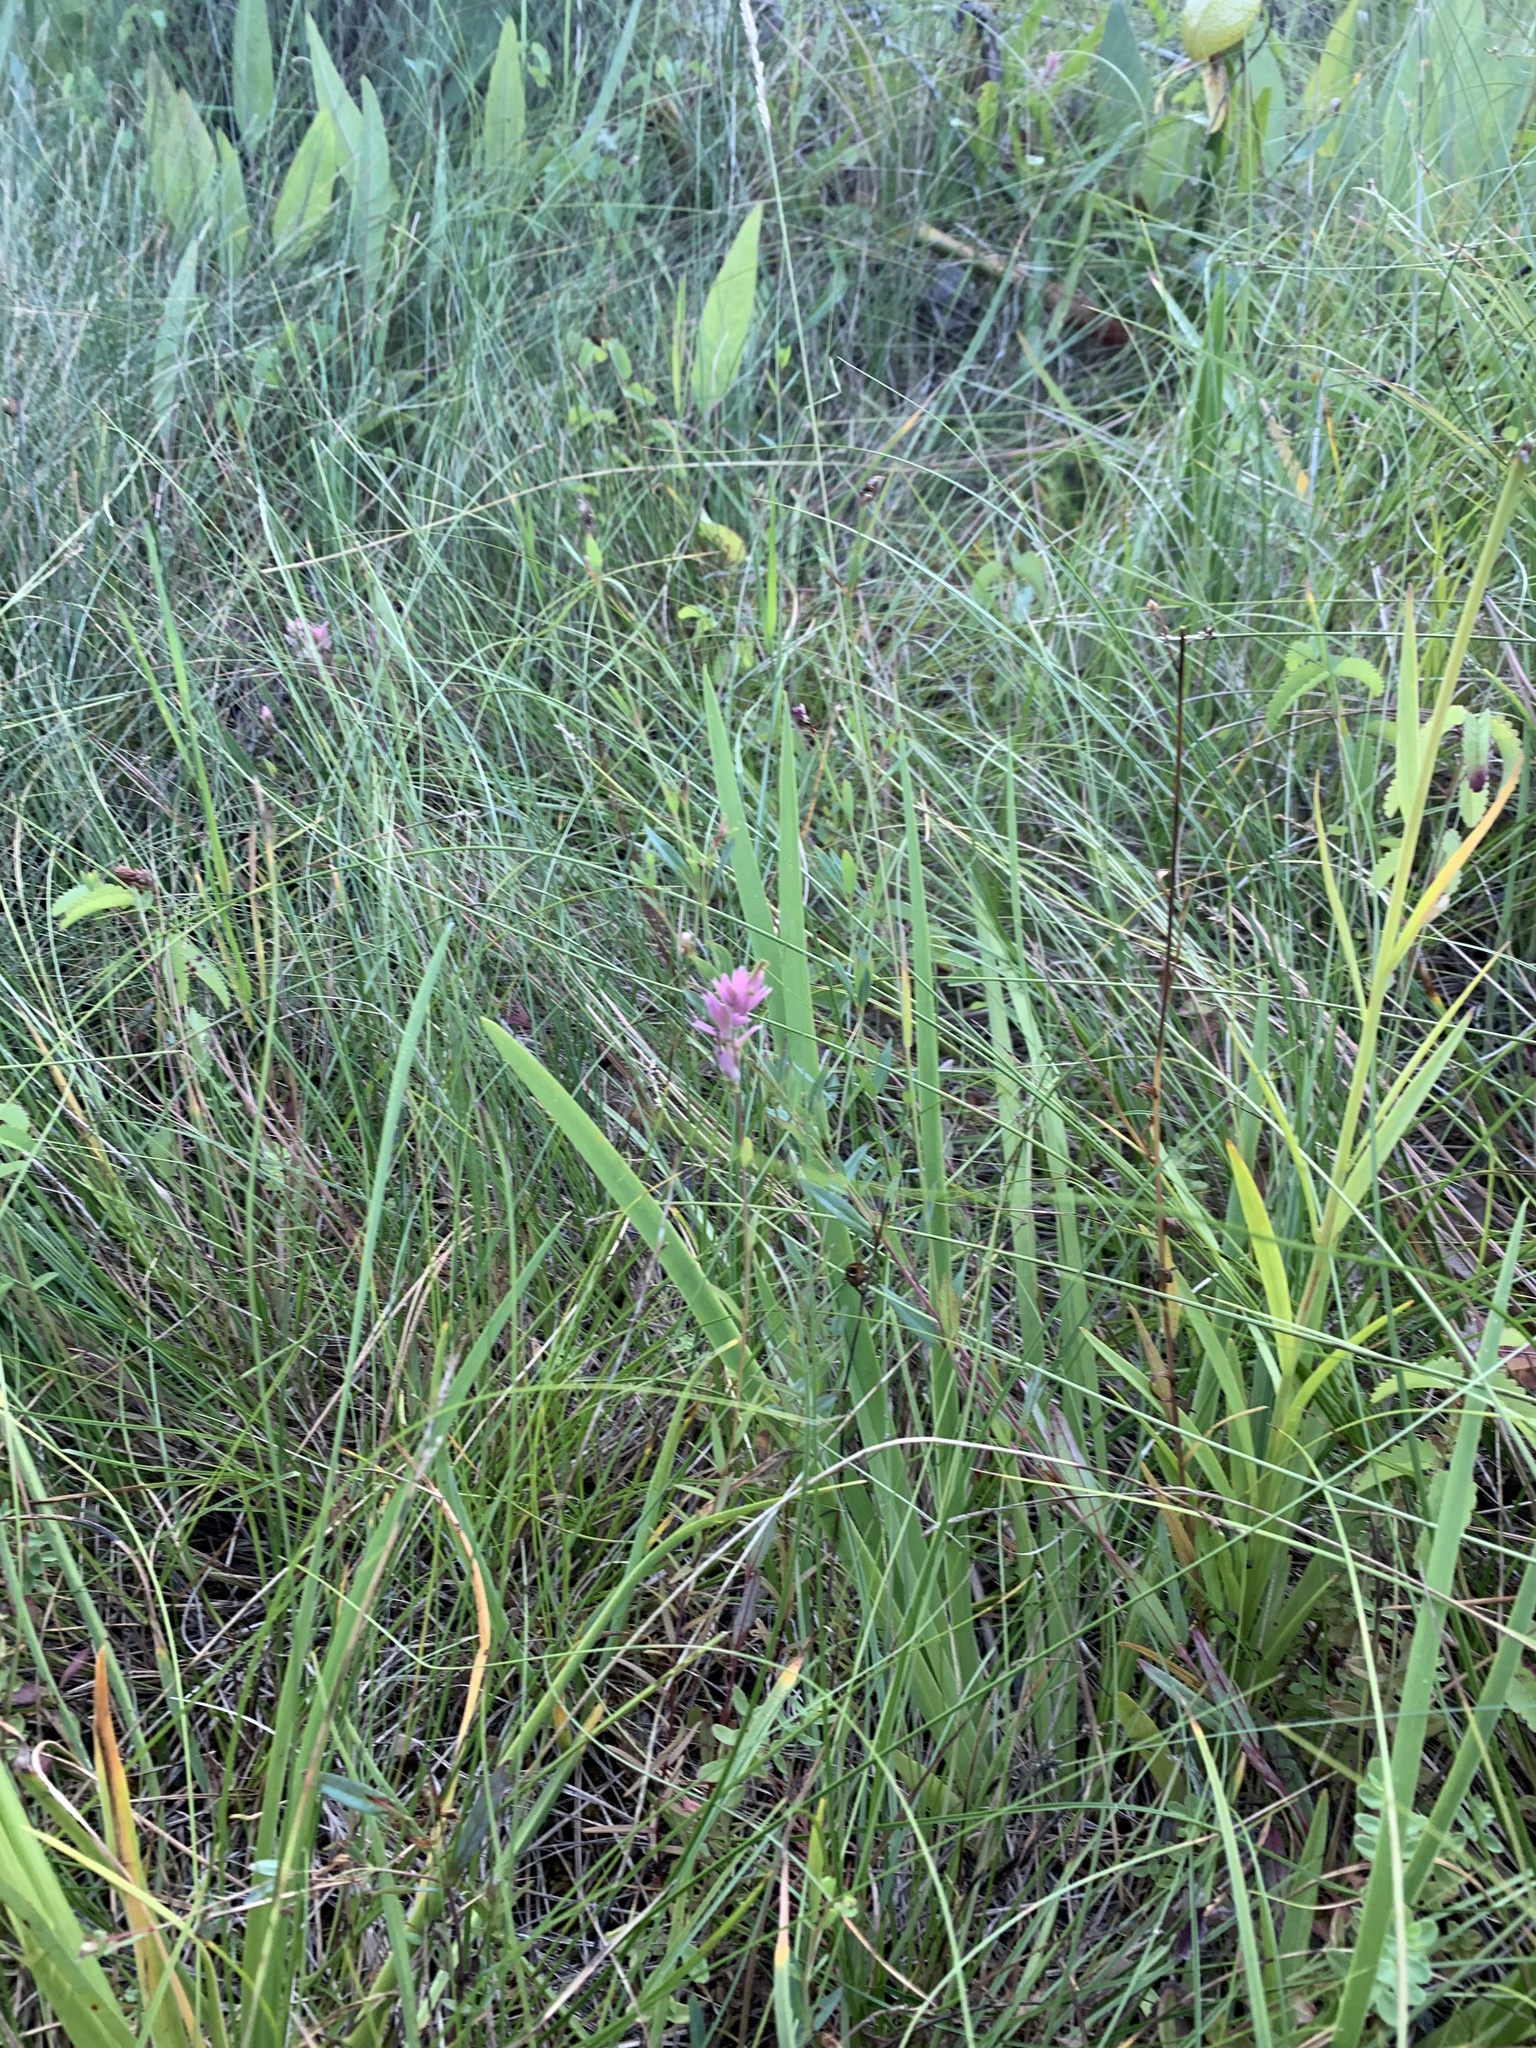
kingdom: Plantae
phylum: Tracheophyta
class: Magnoliopsida
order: Lamiales
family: Orobanchaceae
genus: Castilleja
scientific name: Castilleja elata
